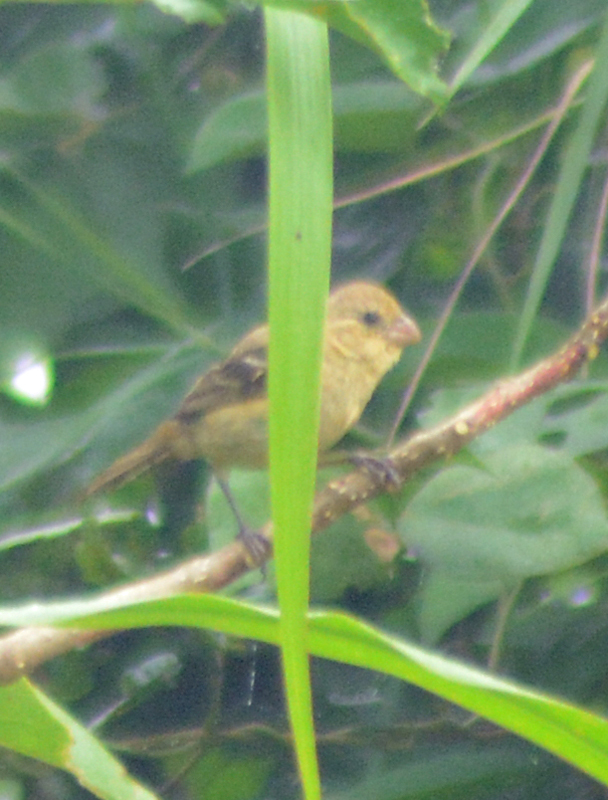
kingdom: Animalia
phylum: Chordata
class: Aves
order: Passeriformes
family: Thraupidae
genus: Sporophila
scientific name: Sporophila morelleti
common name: Morelet's seedeater
